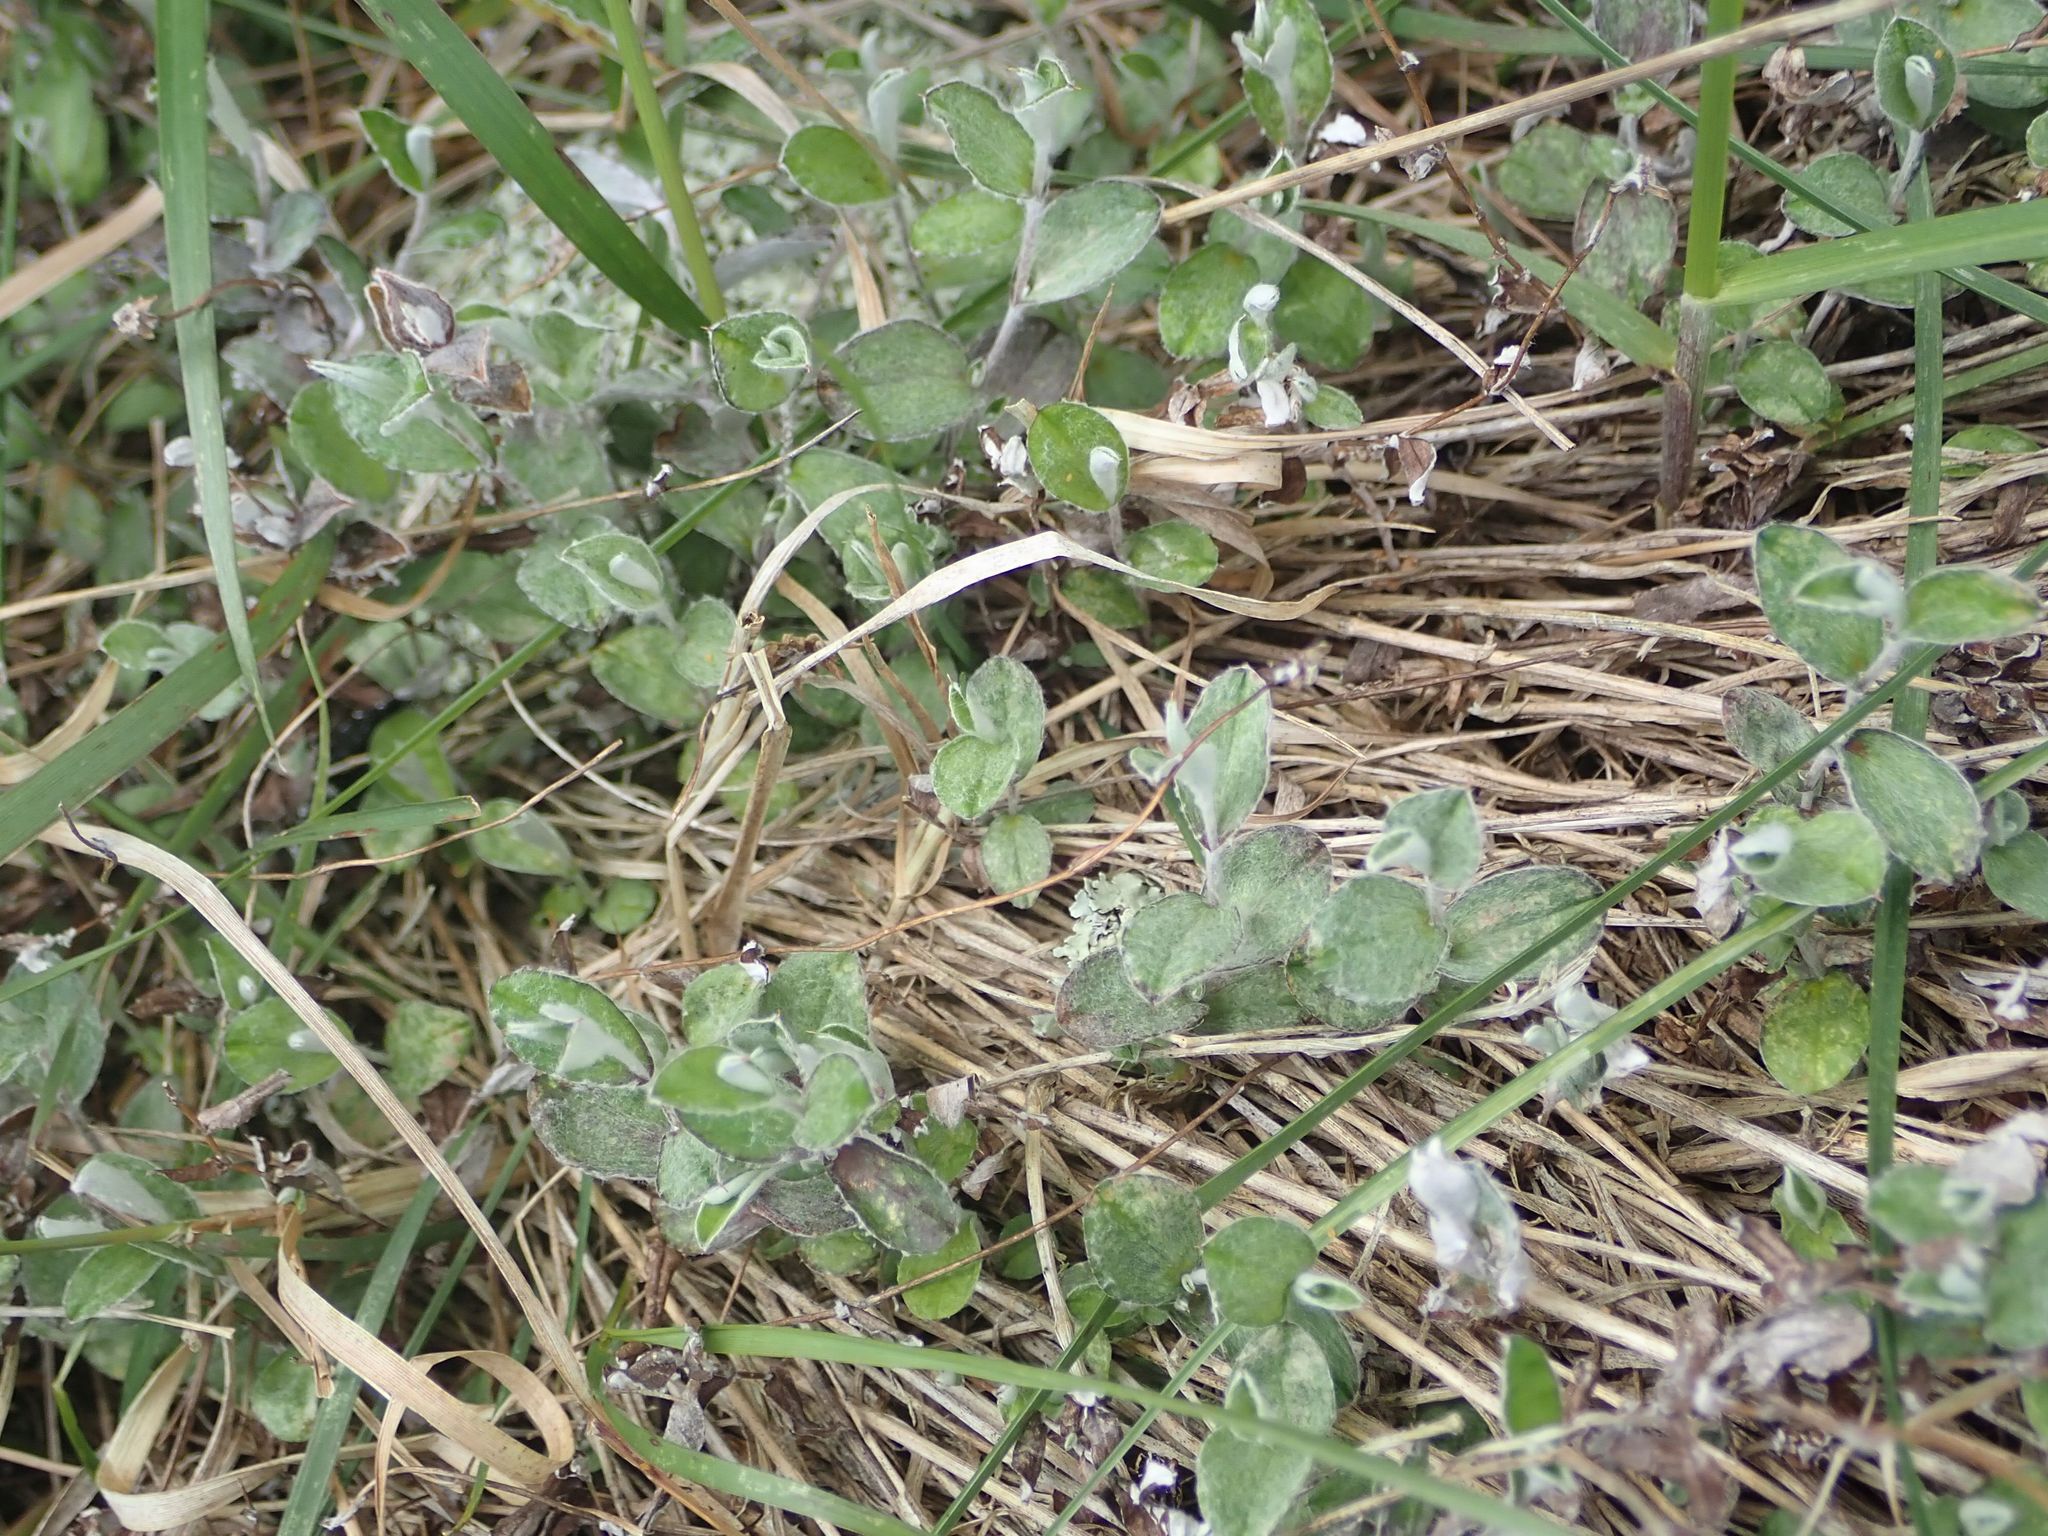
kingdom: Plantae
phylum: Tracheophyta
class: Magnoliopsida
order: Asterales
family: Asteraceae
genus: Helichrysum
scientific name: Helichrysum filicaule
